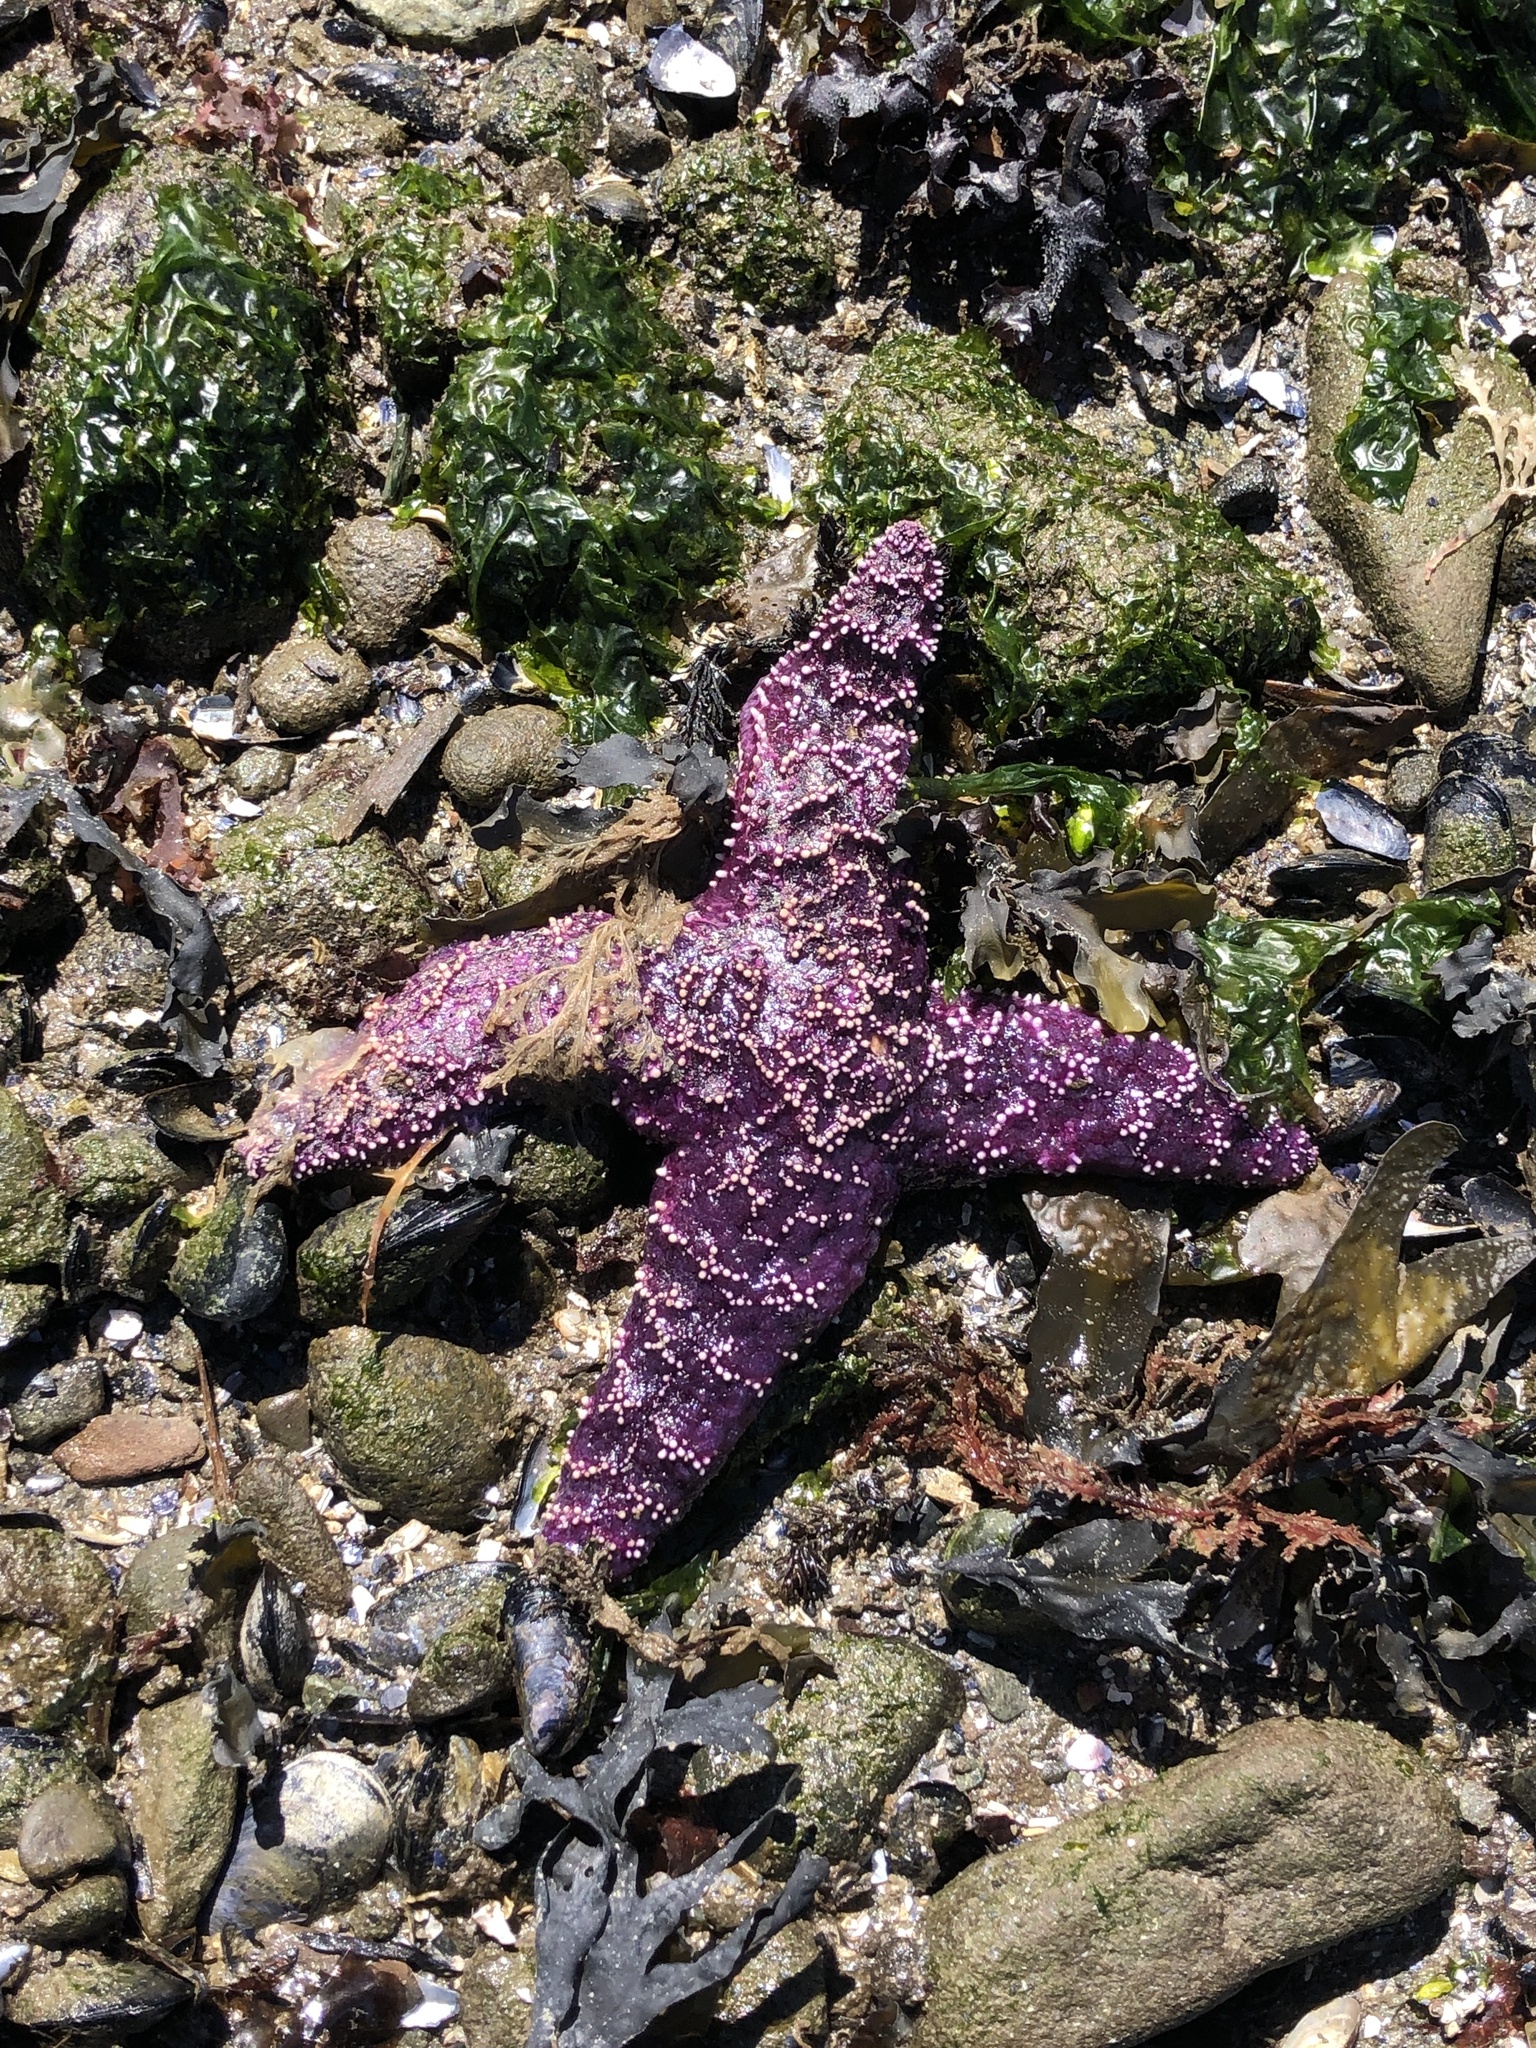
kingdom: Animalia
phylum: Echinodermata
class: Asteroidea
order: Forcipulatida
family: Asteriidae
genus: Pisaster
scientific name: Pisaster ochraceus
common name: Ochre stars
